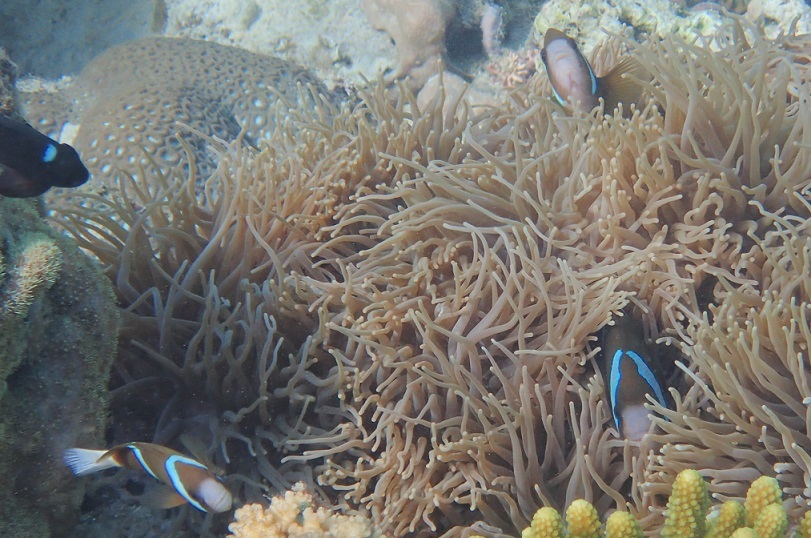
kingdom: Animalia
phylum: Chordata
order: Perciformes
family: Pomacentridae
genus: Amphiprion
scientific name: Amphiprion akindynos
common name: Barrier reef anemonefish
